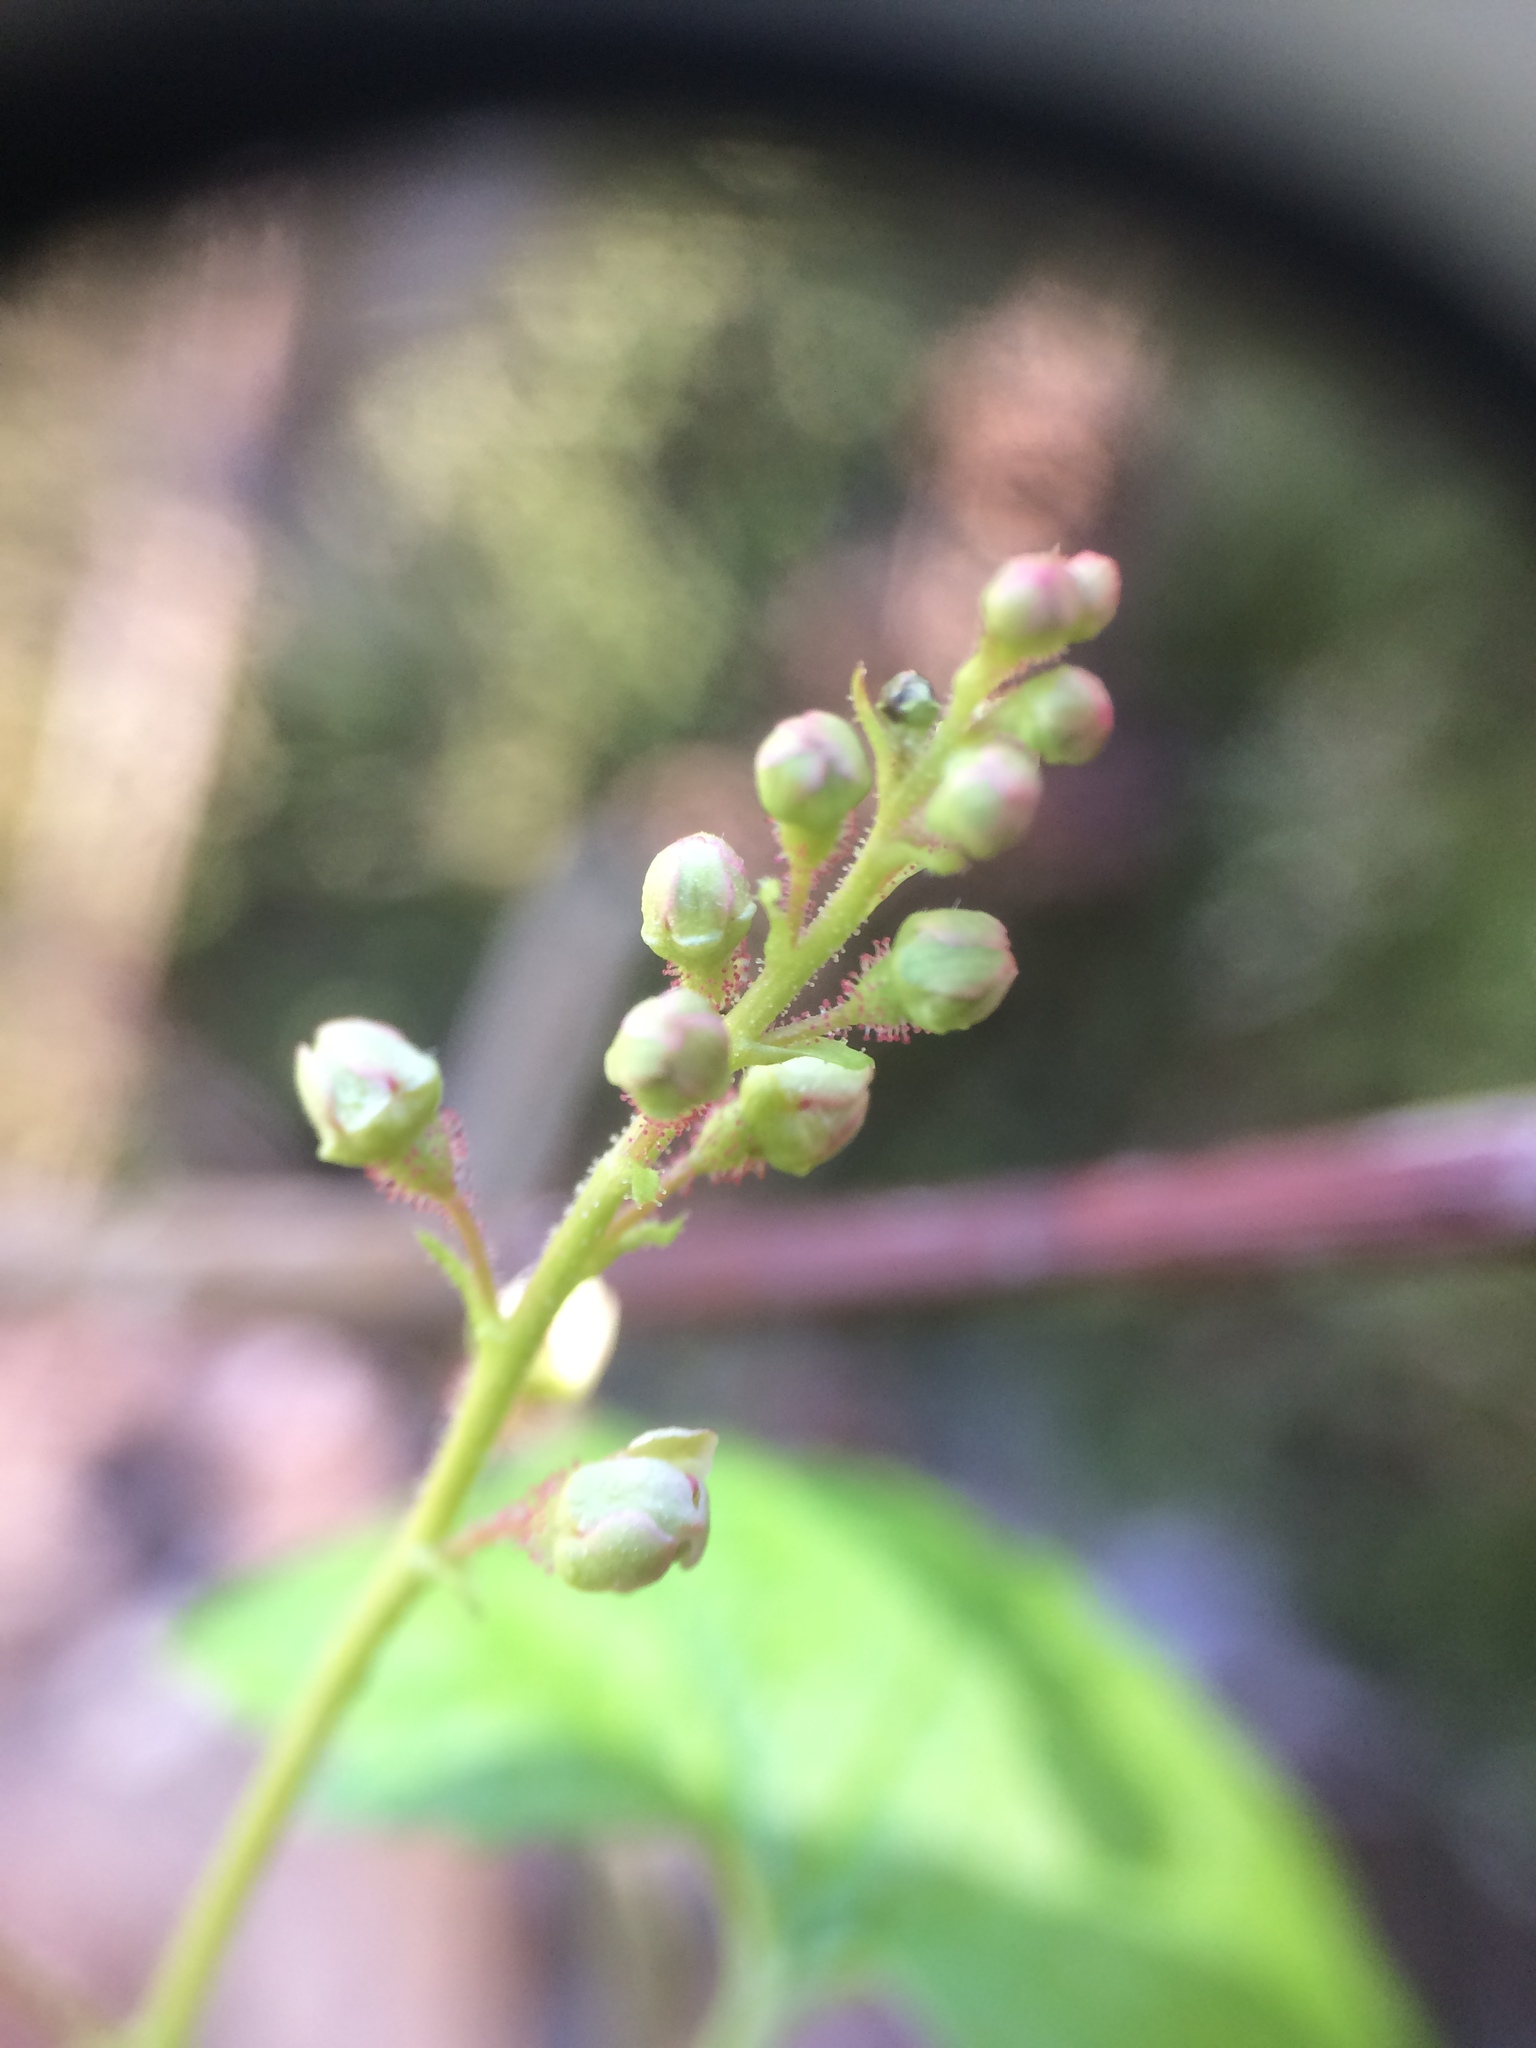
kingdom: Plantae
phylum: Tracheophyta
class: Magnoliopsida
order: Saxifragales
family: Grossulariaceae
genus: Ribes
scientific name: Ribes glandulosum
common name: Skunk currant
